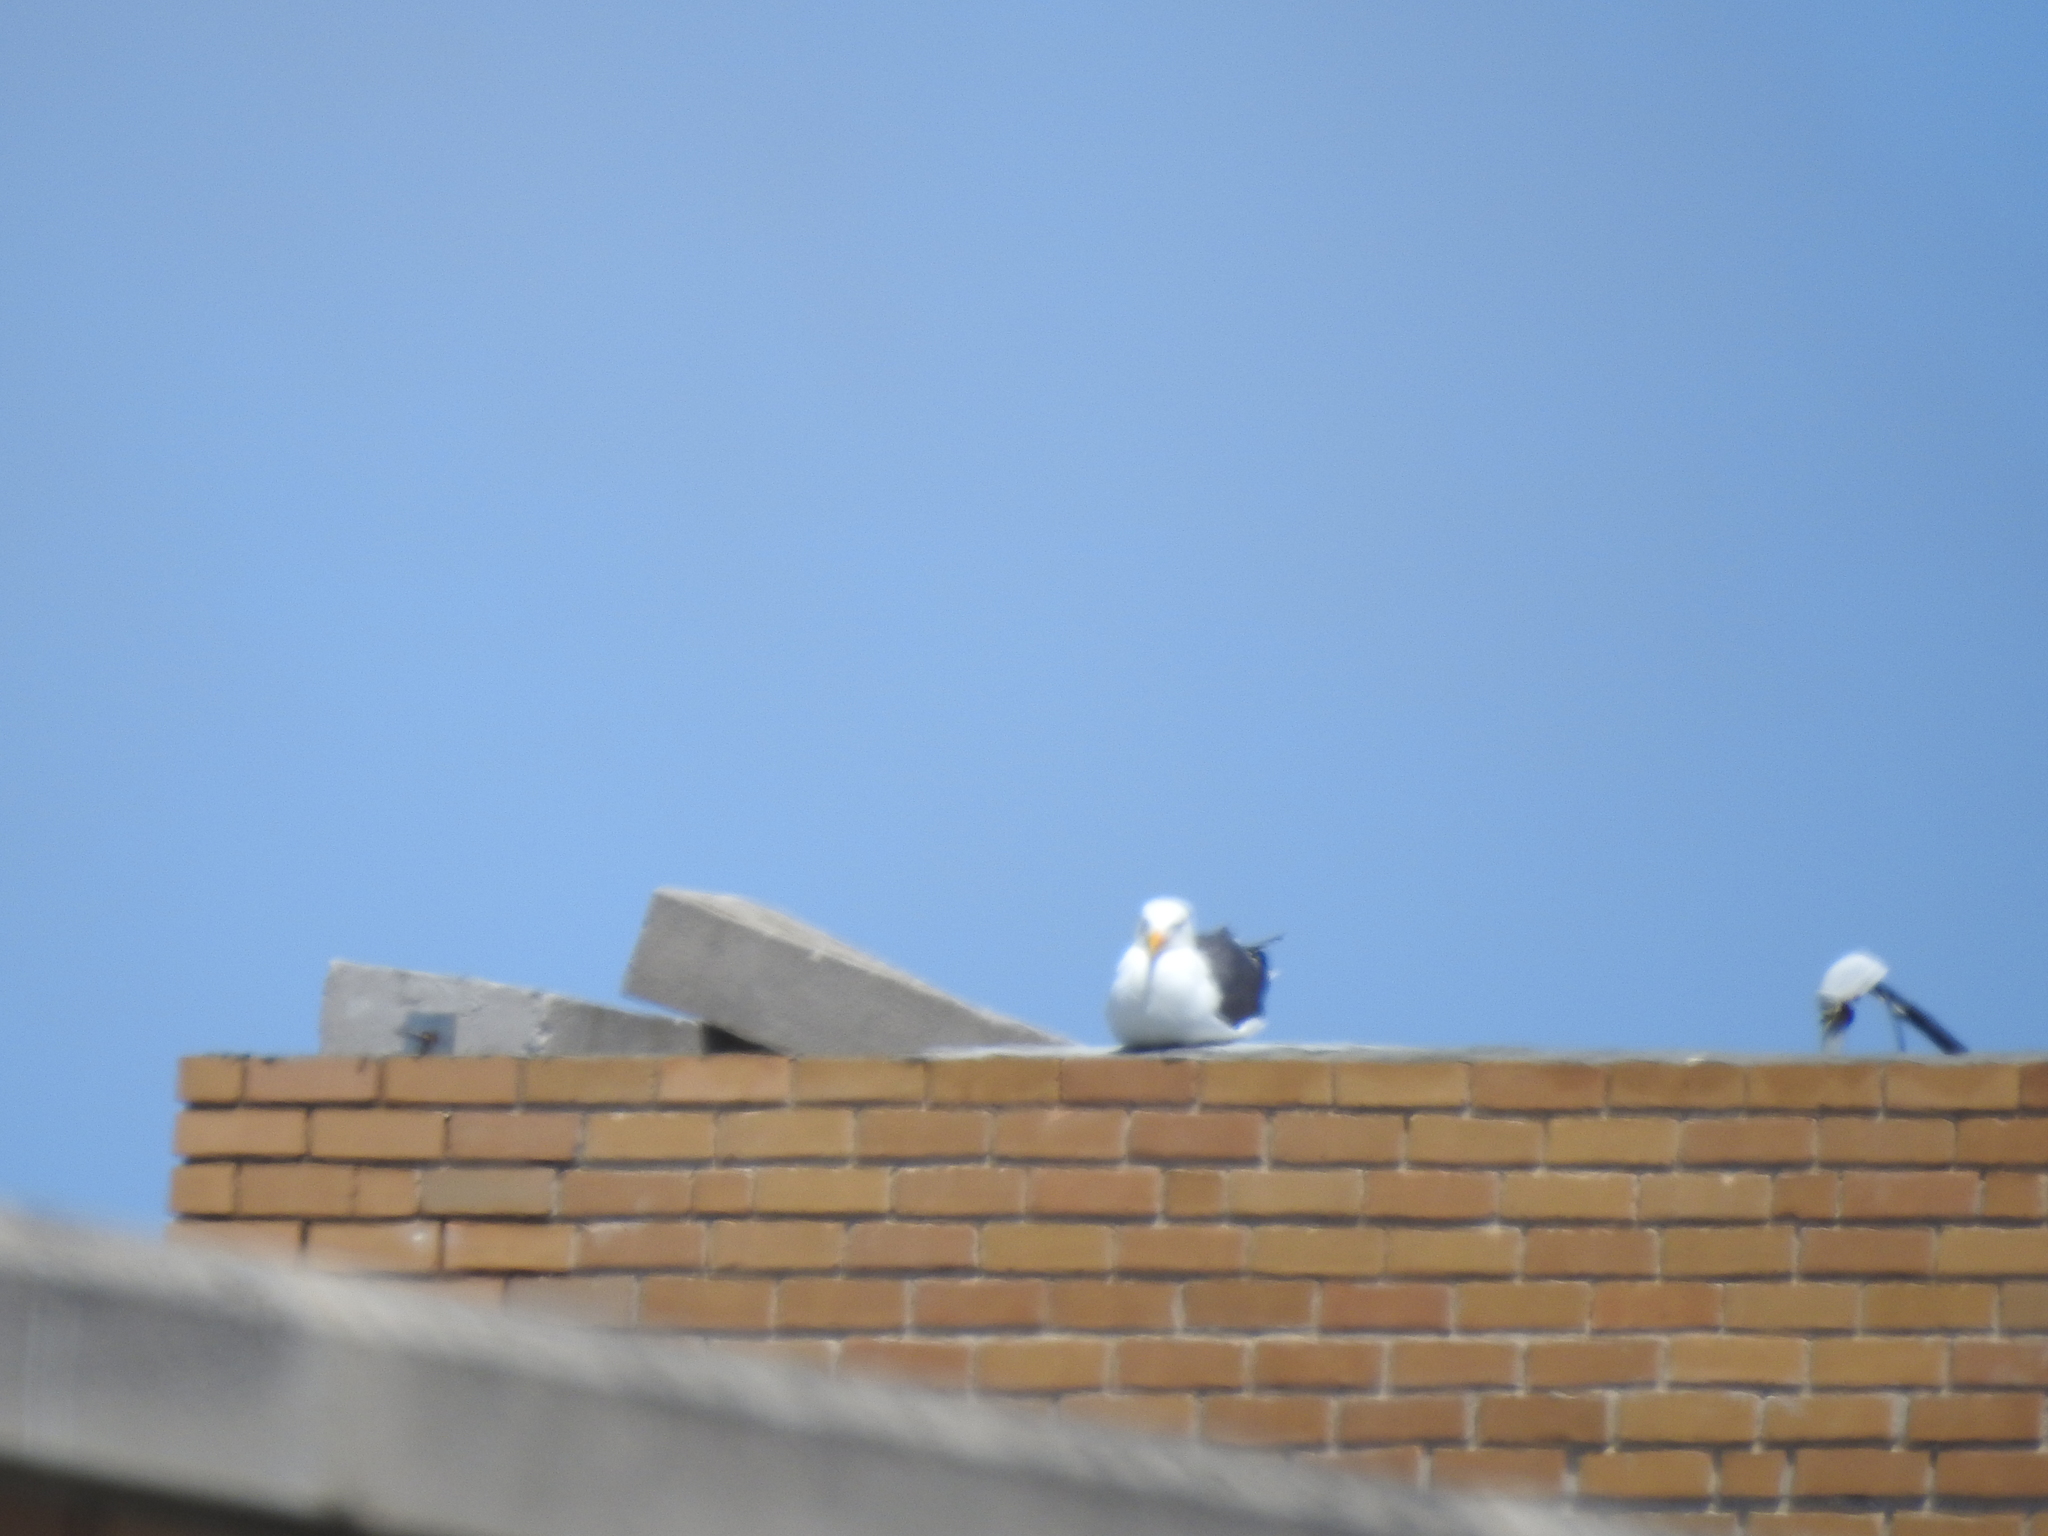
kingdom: Animalia
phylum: Chordata
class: Aves
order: Charadriiformes
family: Laridae
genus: Larus
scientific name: Larus occidentalis
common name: Western gull
